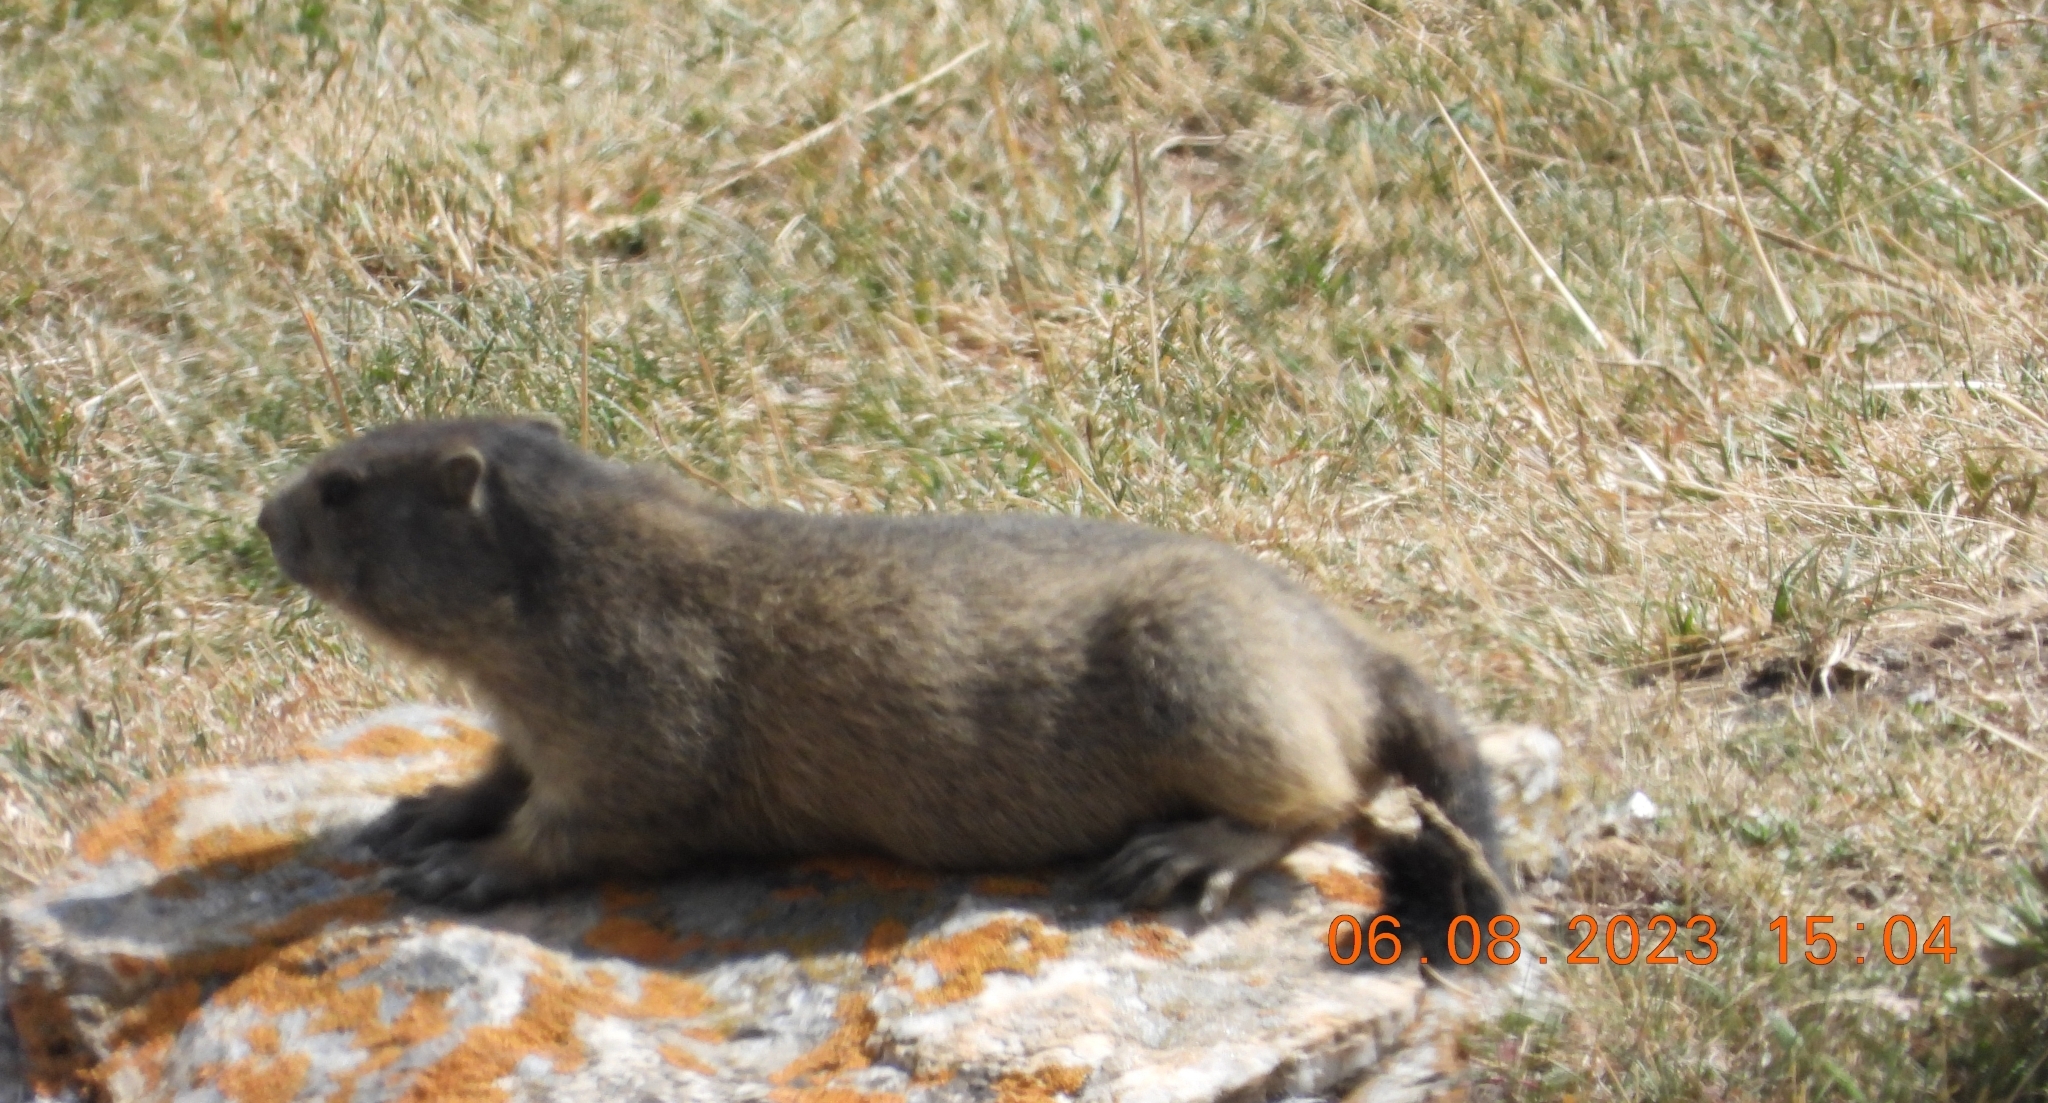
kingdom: Animalia
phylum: Chordata
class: Mammalia
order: Rodentia
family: Sciuridae
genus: Marmota
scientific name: Marmota marmota
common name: Alpine marmot
